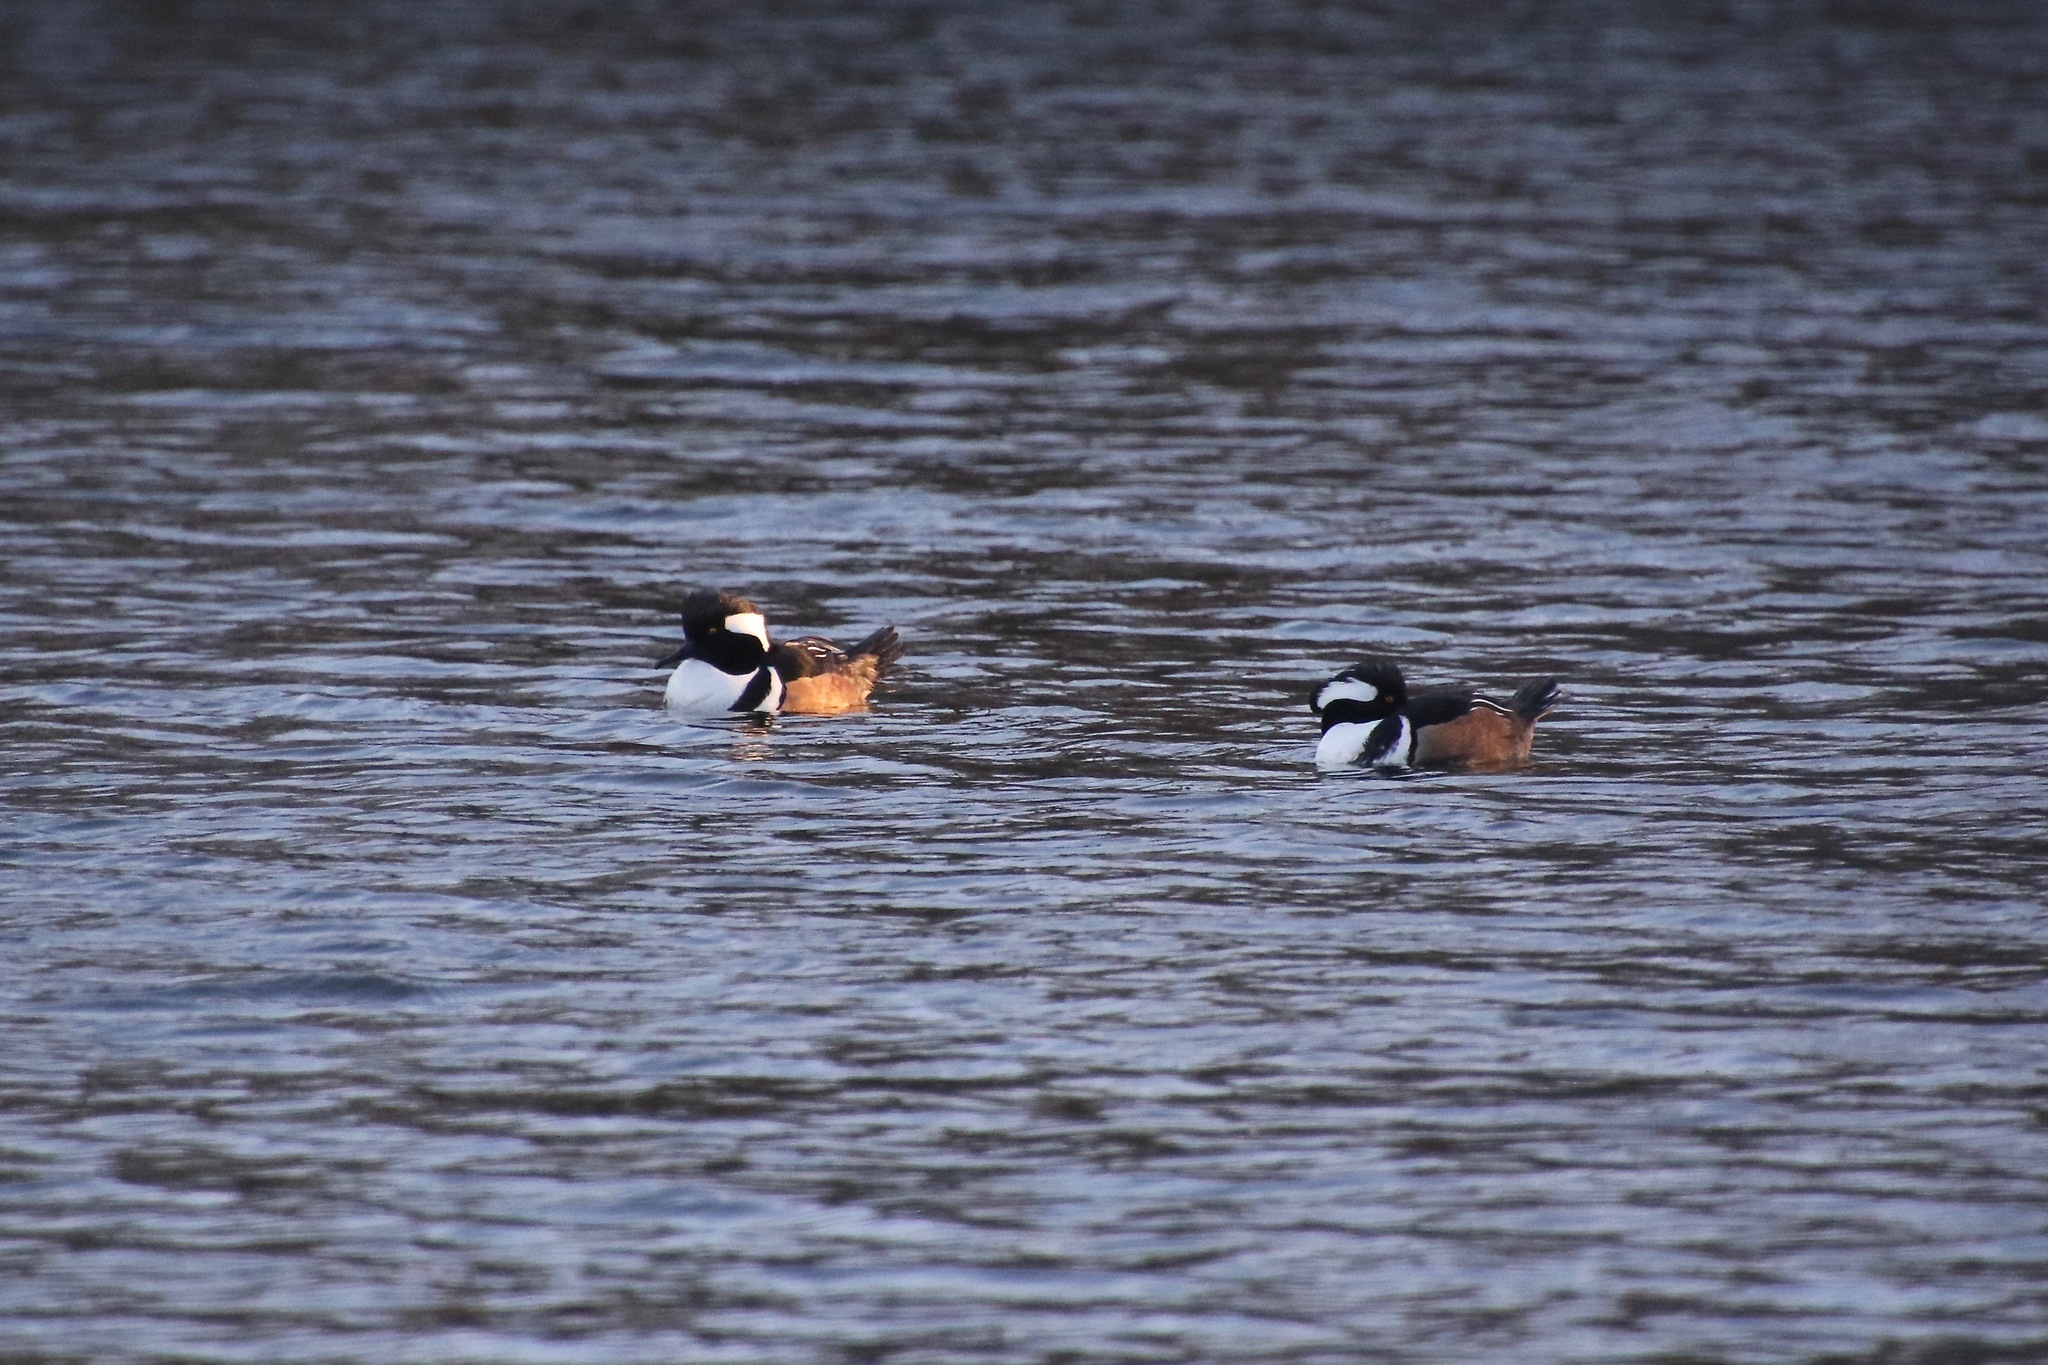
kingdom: Animalia
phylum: Chordata
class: Aves
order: Anseriformes
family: Anatidae
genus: Lophodytes
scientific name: Lophodytes cucullatus
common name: Hooded merganser
